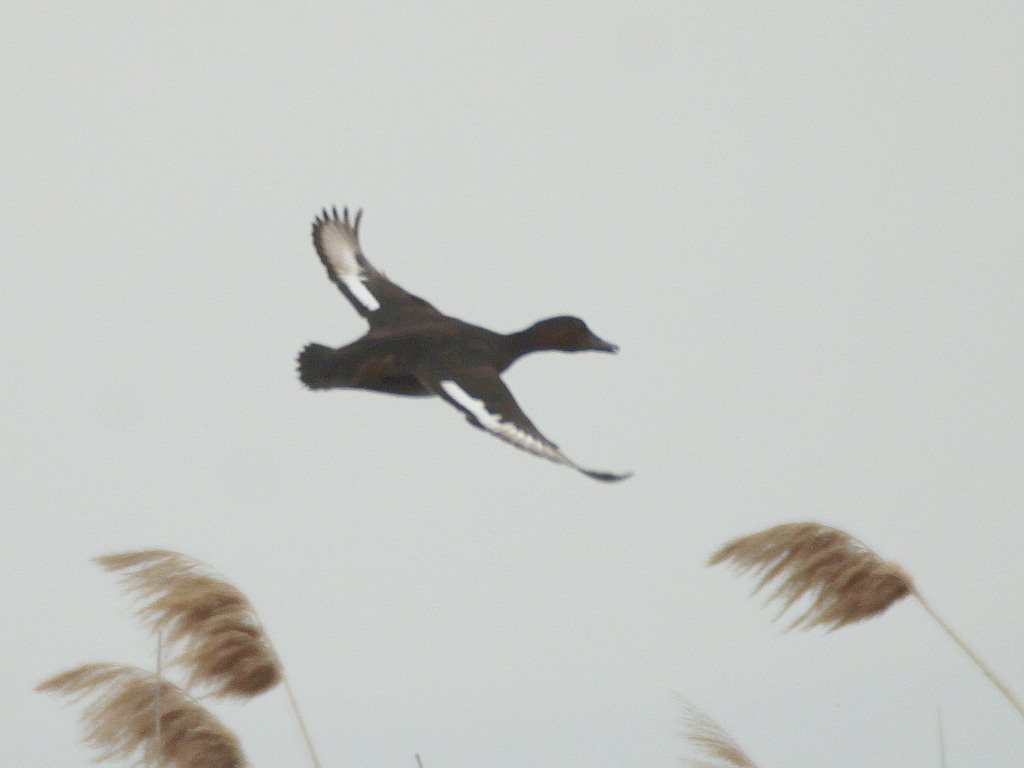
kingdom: Animalia
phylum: Chordata
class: Aves
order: Anseriformes
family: Anatidae
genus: Aythya
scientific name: Aythya nyroca
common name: Ferruginous duck
